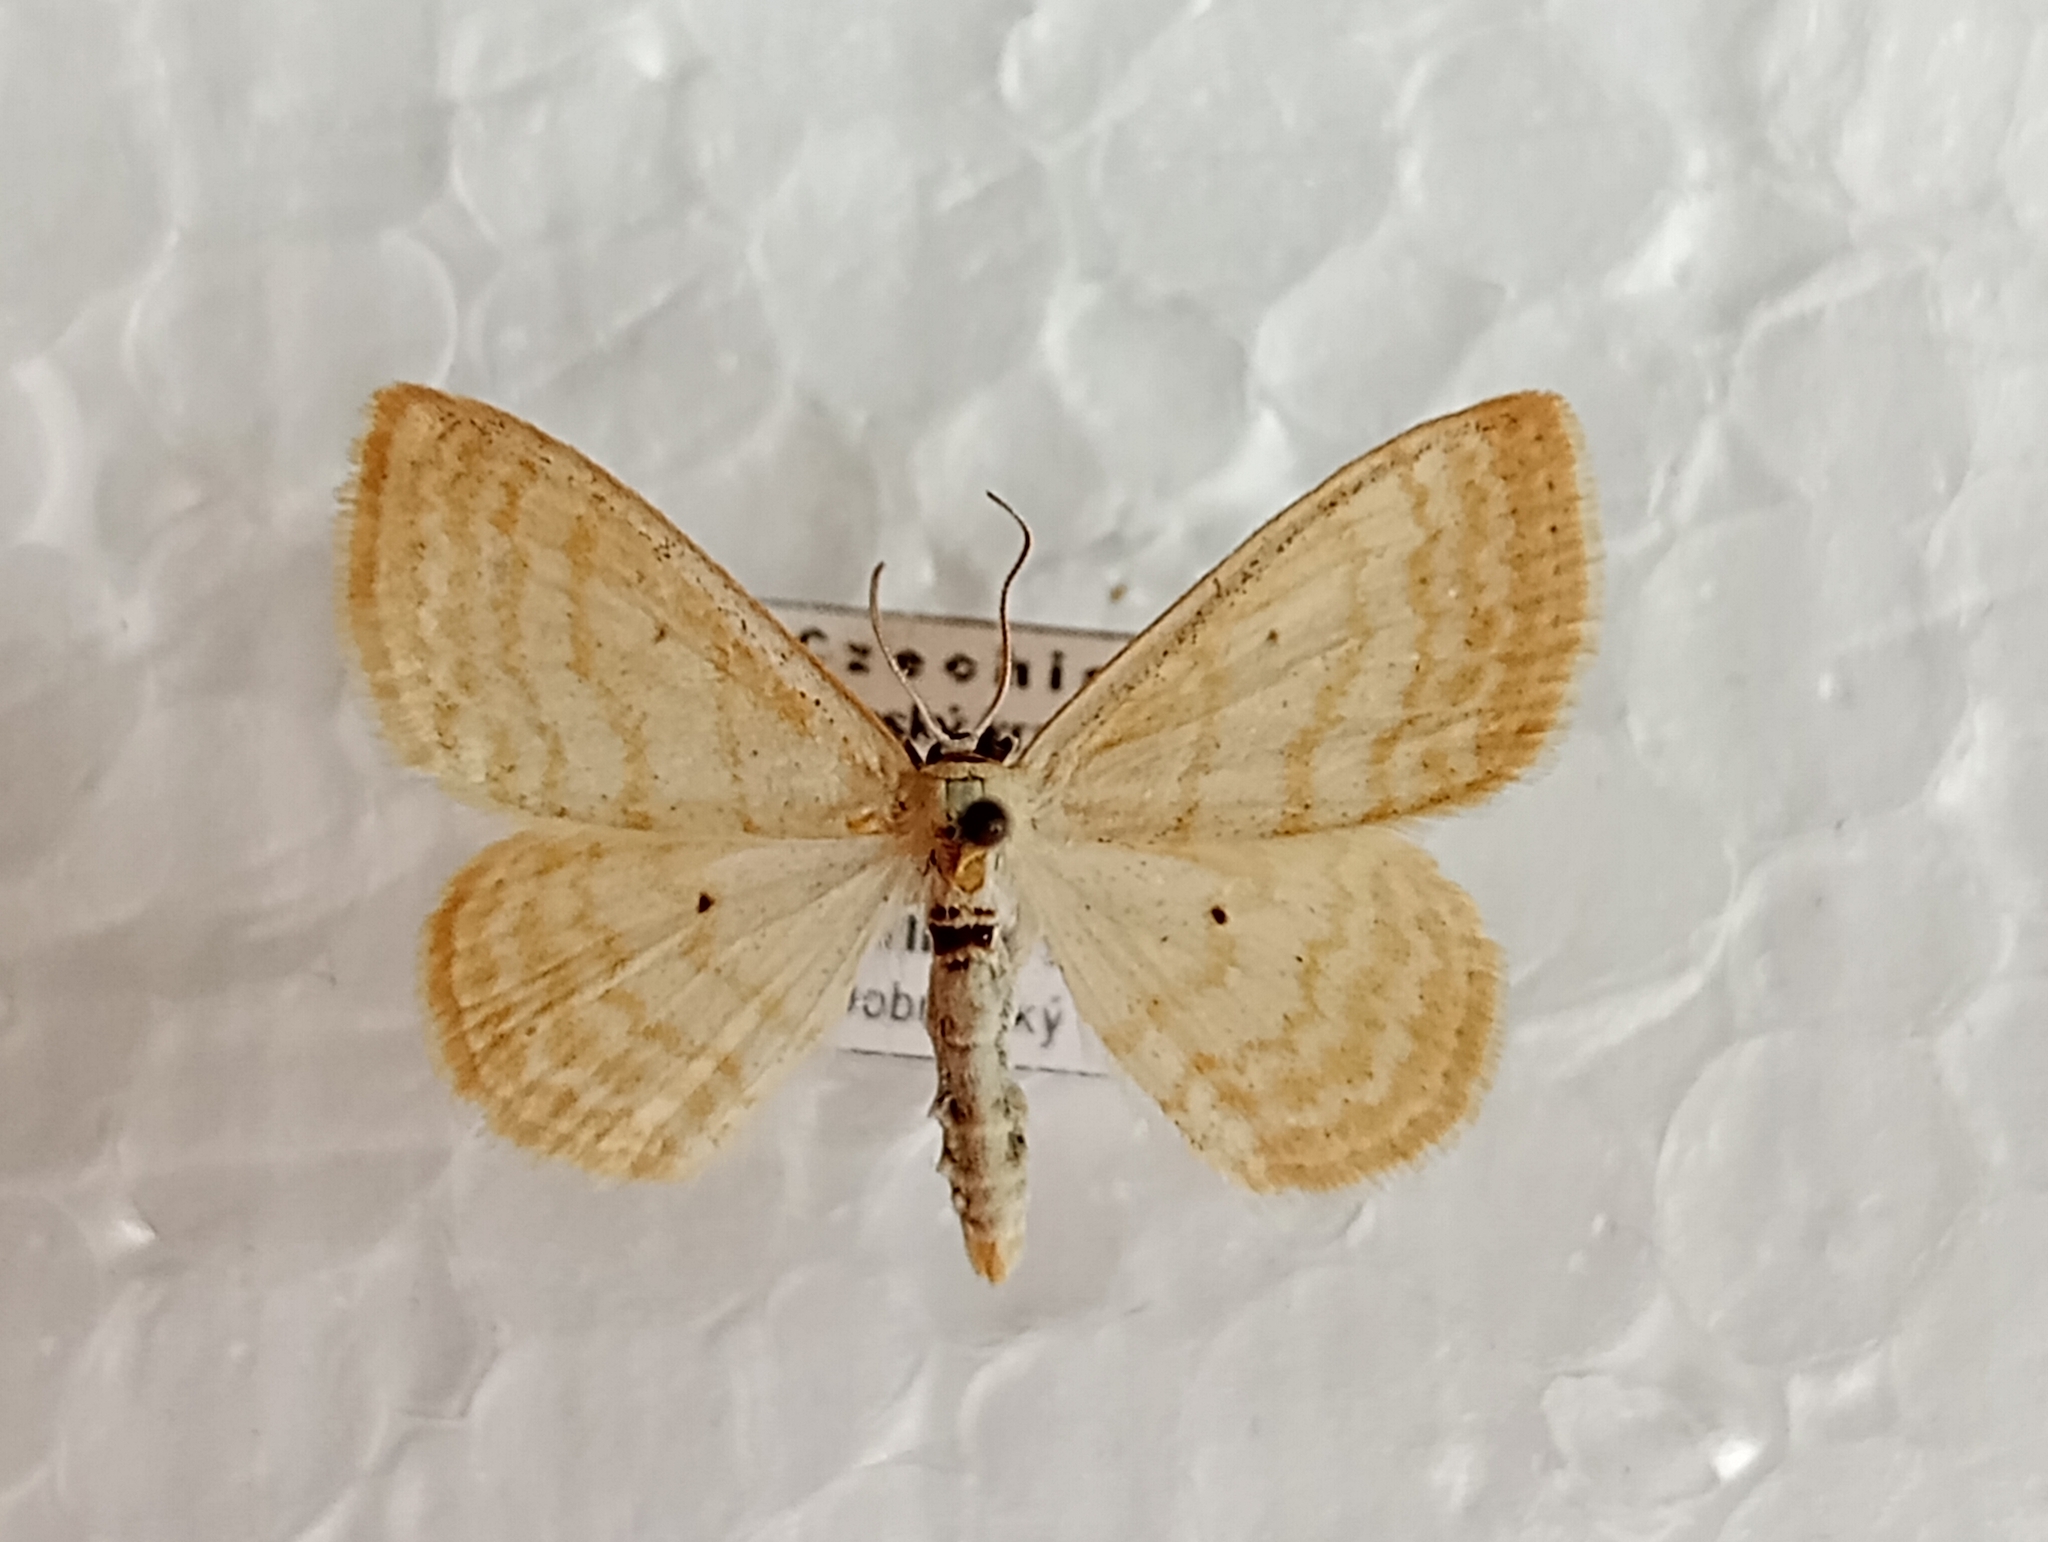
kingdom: Animalia
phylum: Arthropoda
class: Insecta
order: Lepidoptera
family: Geometridae
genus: Scopula
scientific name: Scopula immutata
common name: Lesser cream wave
